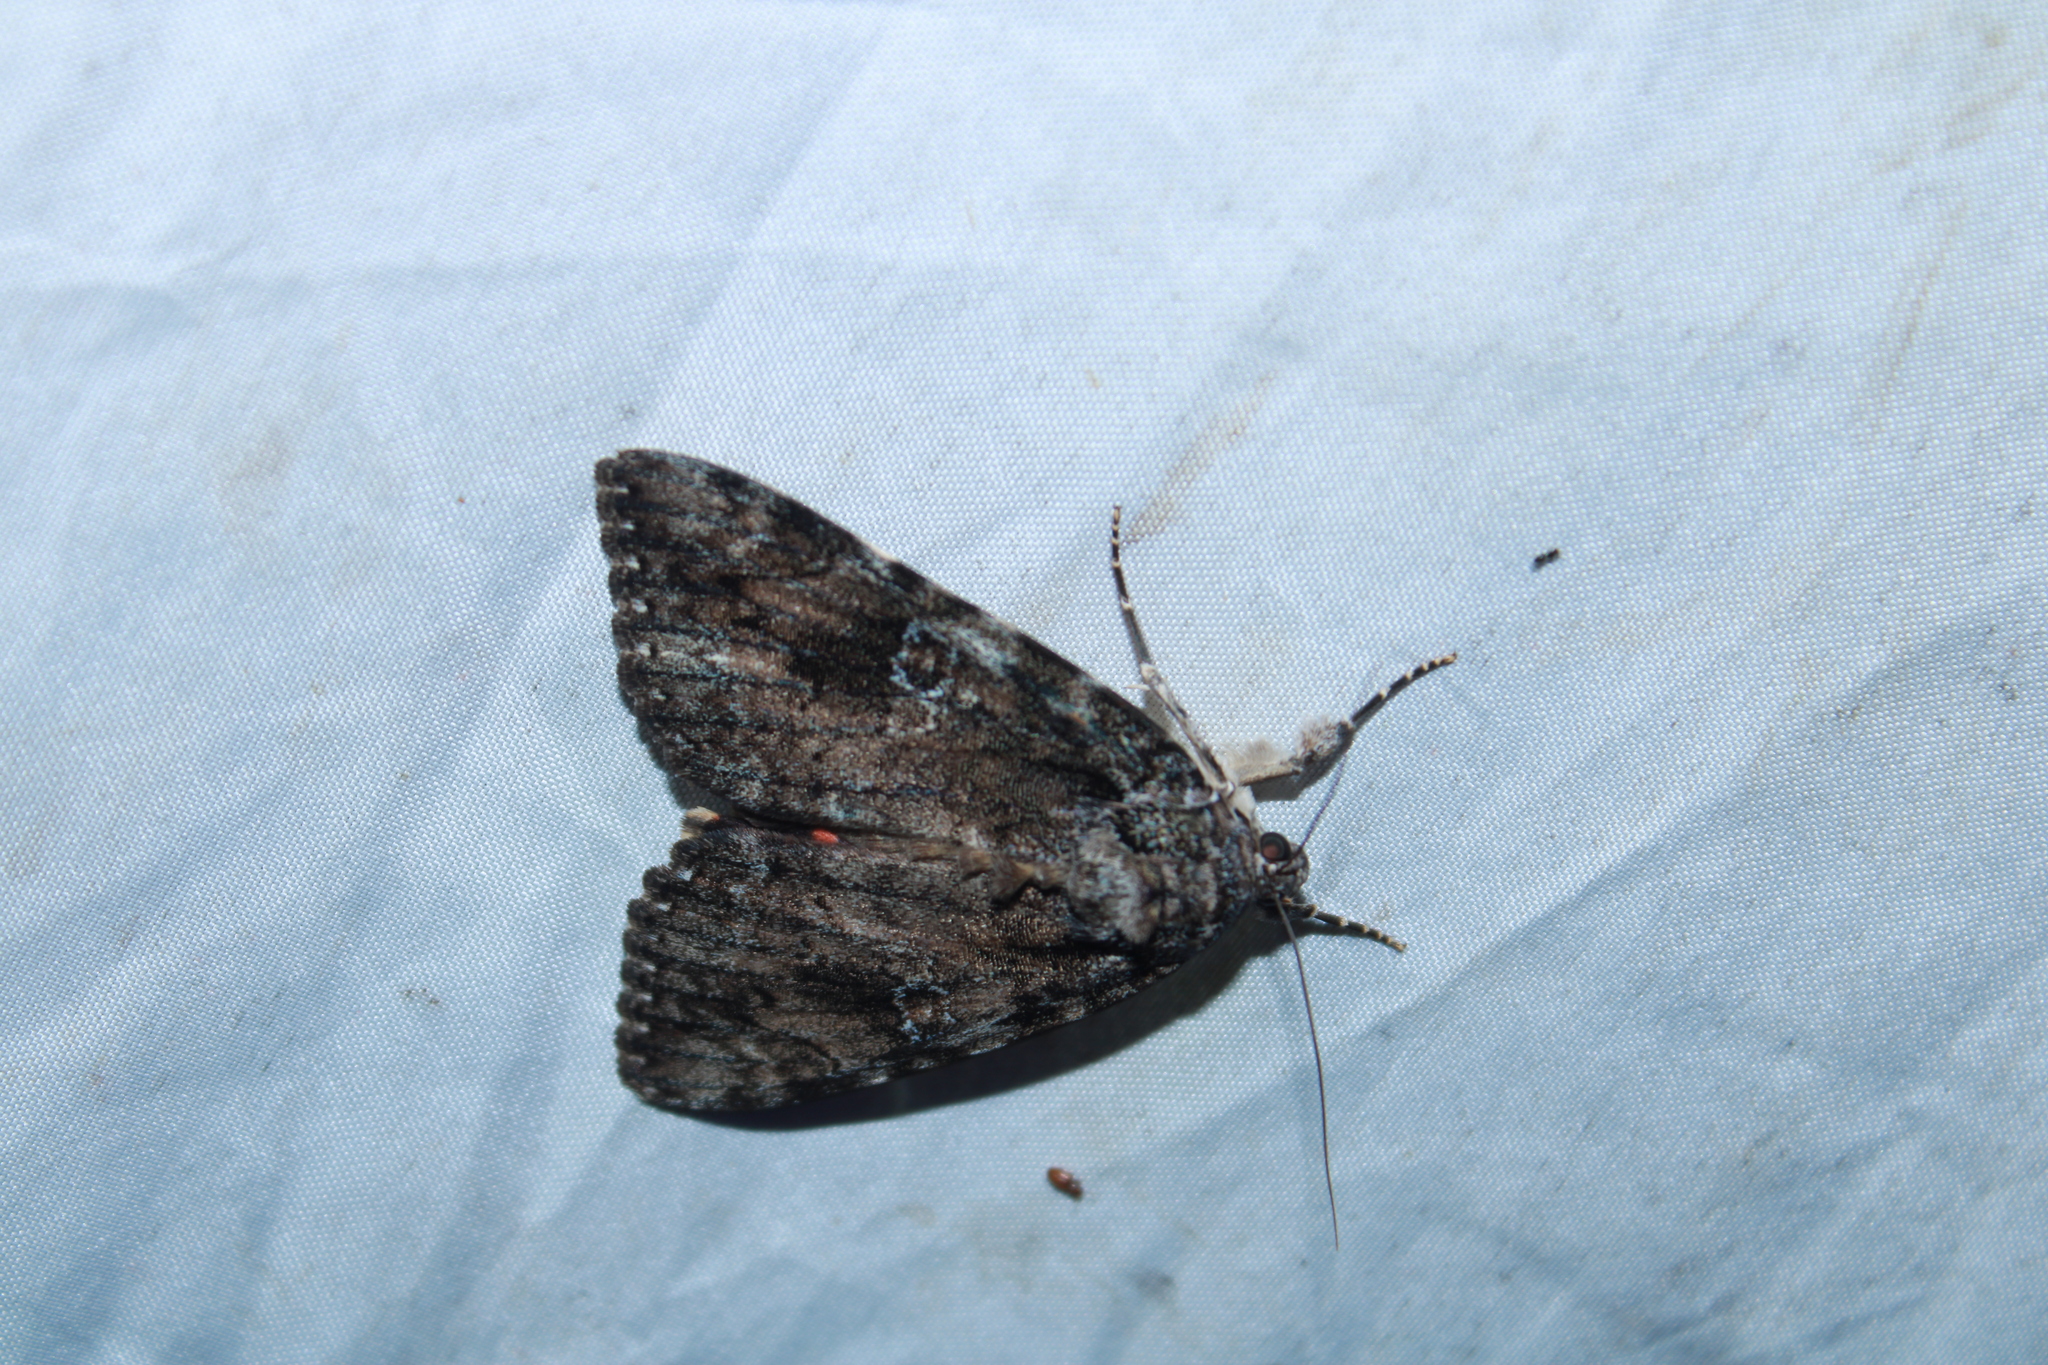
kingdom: Animalia
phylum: Arthropoda
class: Insecta
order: Lepidoptera
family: Erebidae
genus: Catocala
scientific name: Catocala ilia
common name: Ilia underwing
